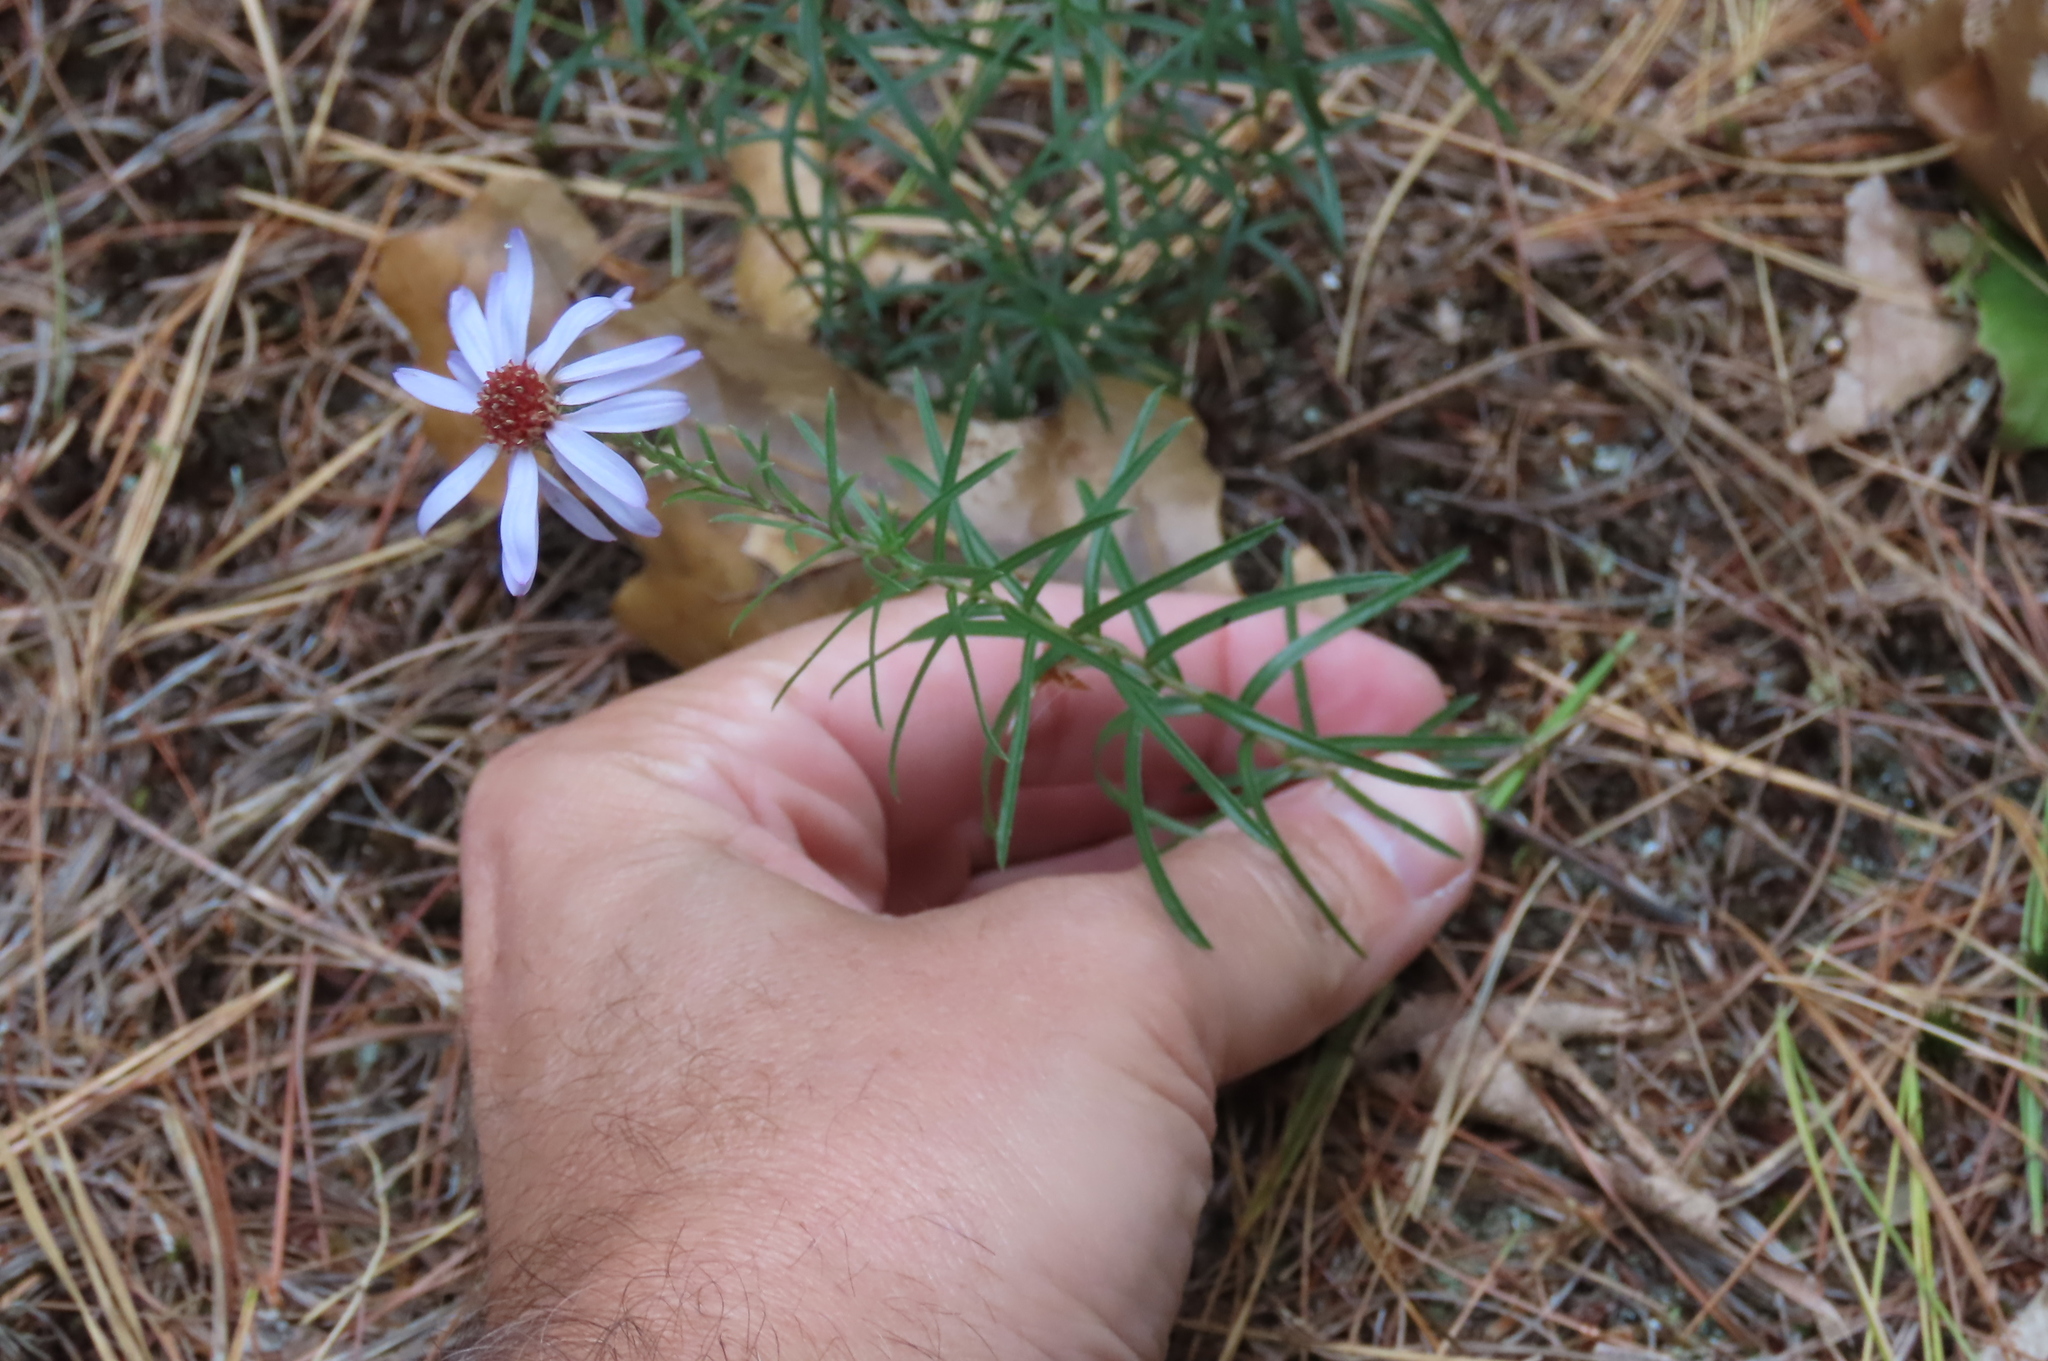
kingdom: Plantae
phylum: Tracheophyta
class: Magnoliopsida
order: Asterales
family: Asteraceae
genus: Ionactis
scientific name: Ionactis linariifolia
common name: Flax-leaf aster
